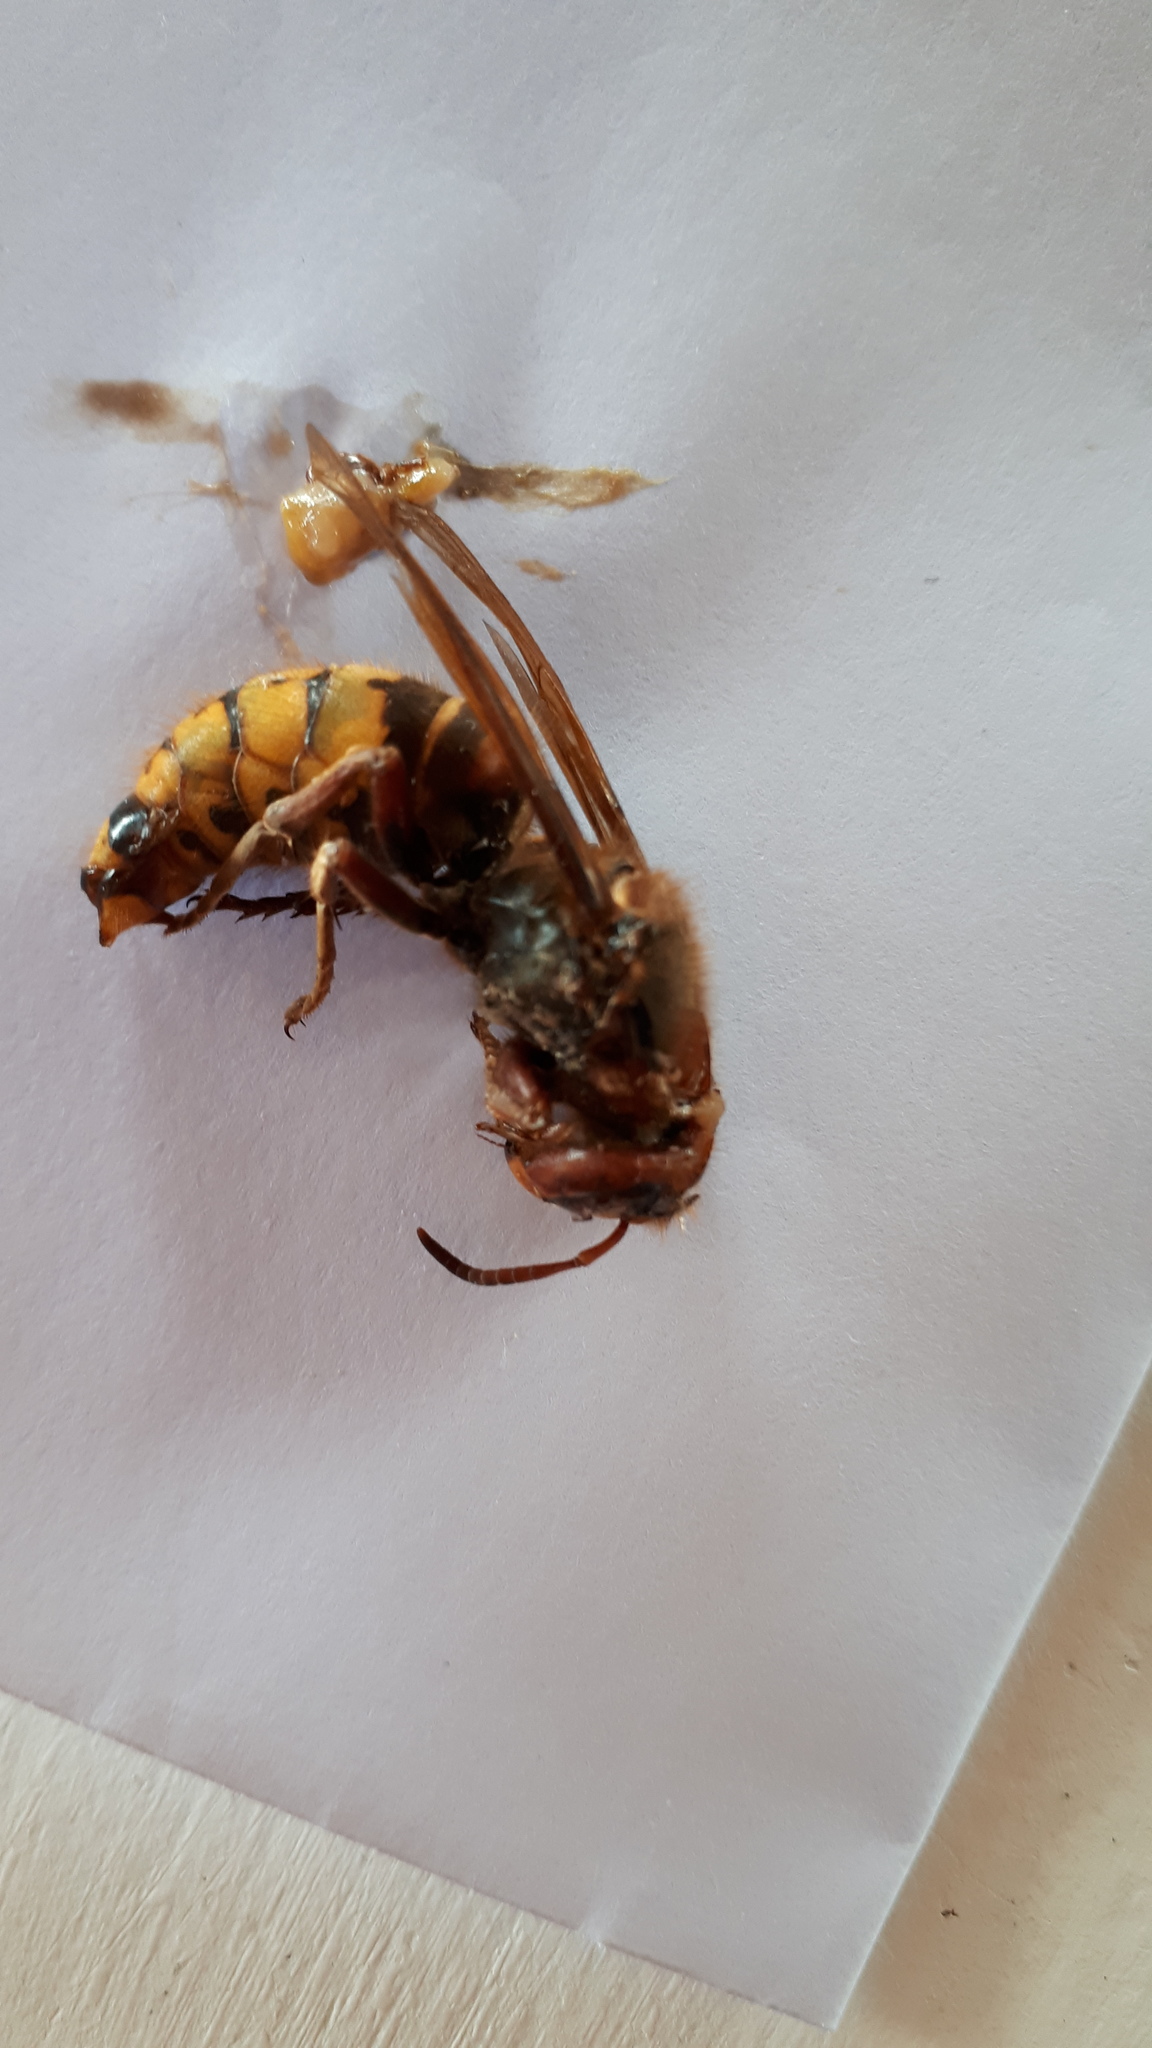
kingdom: Animalia
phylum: Arthropoda
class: Insecta
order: Hymenoptera
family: Vespidae
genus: Vespa
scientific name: Vespa crabro
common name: Hornet
